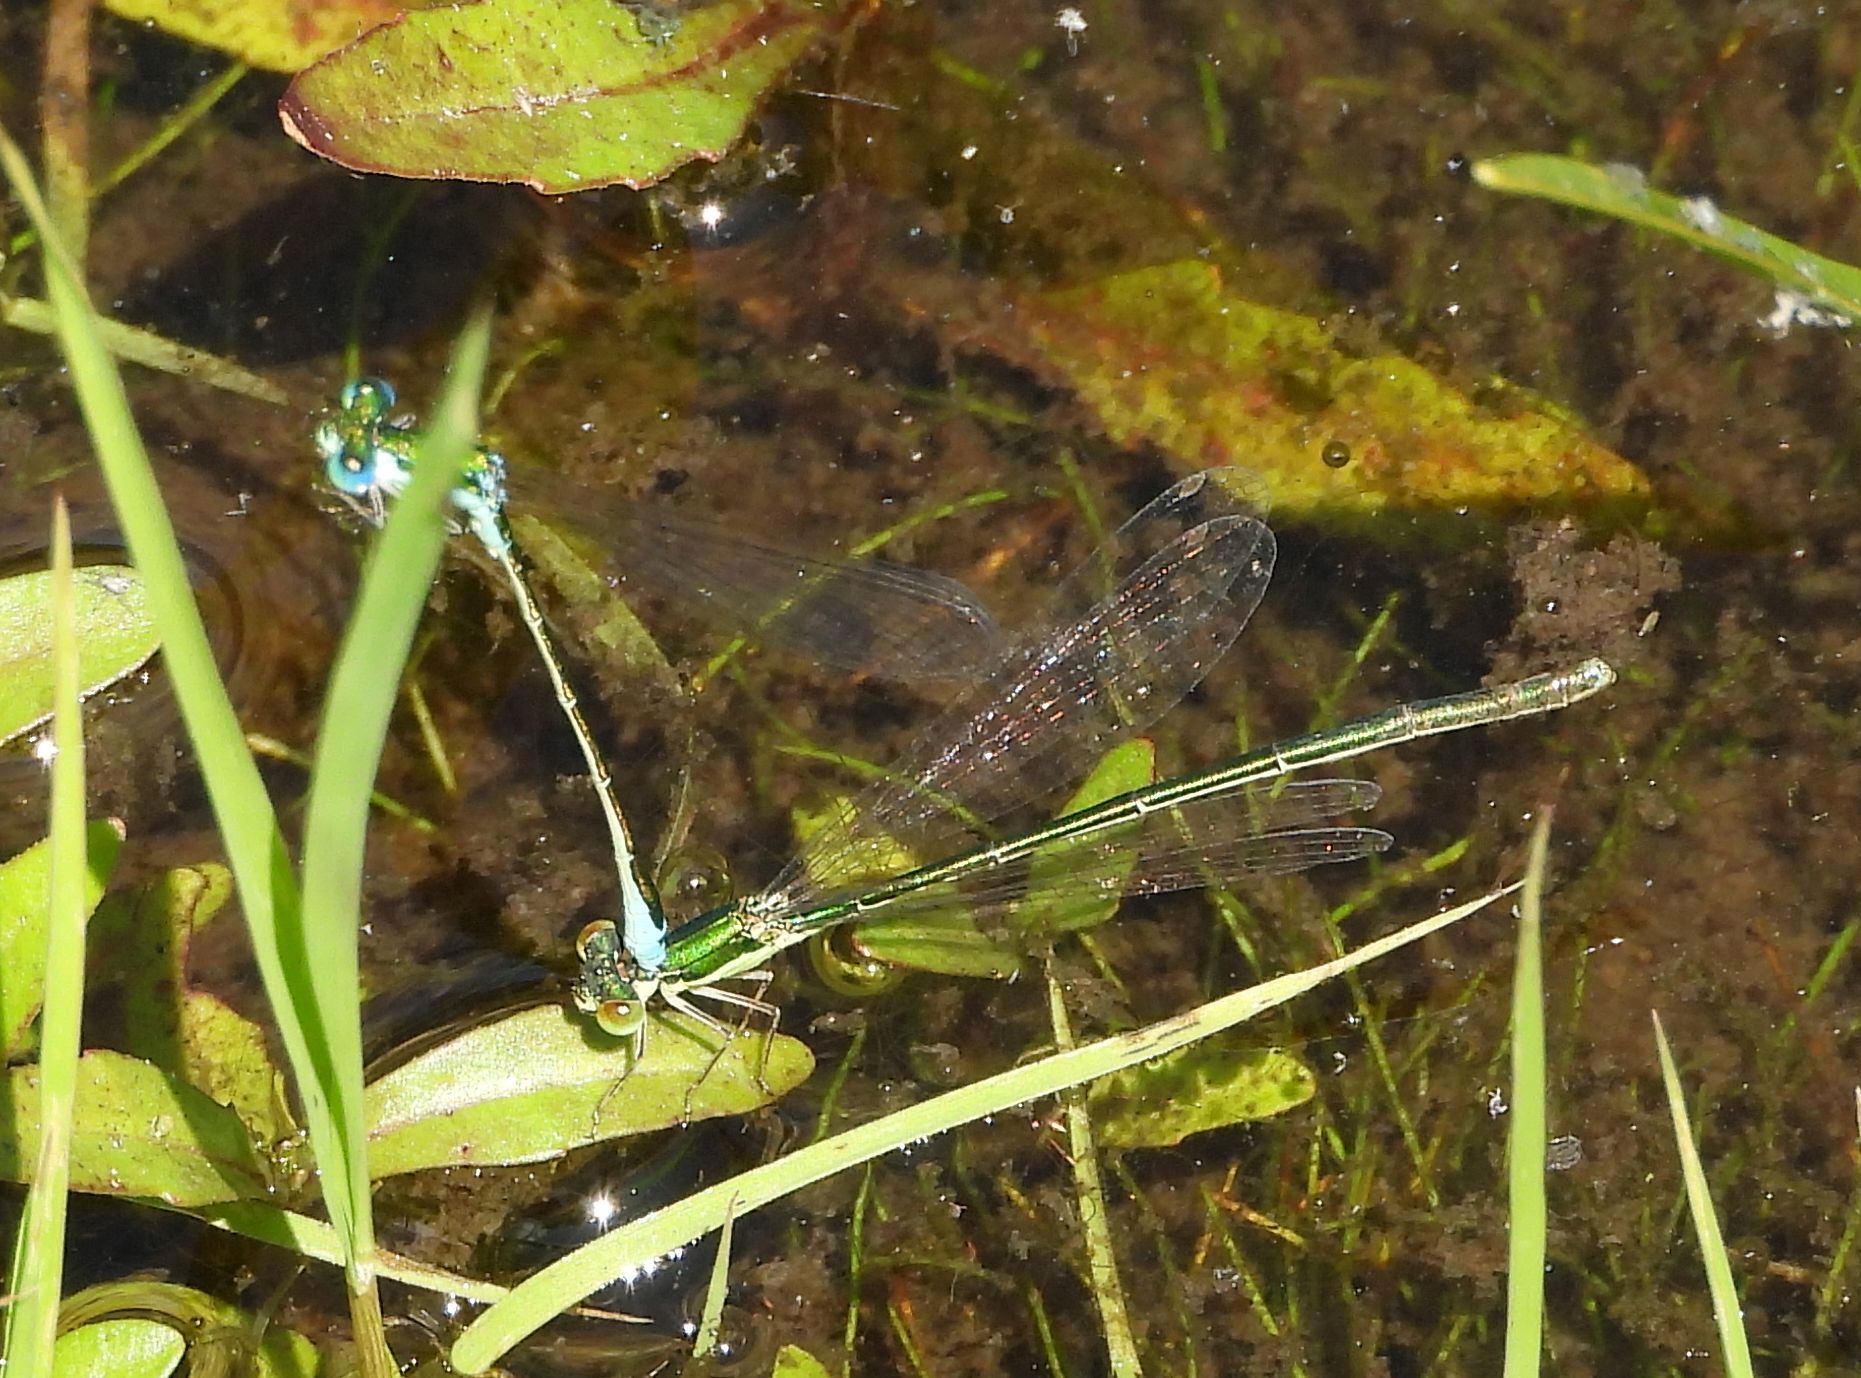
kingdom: Animalia
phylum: Arthropoda
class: Insecta
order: Odonata
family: Coenagrionidae
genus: Nehalennia
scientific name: Nehalennia irene
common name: Sedge sprite
